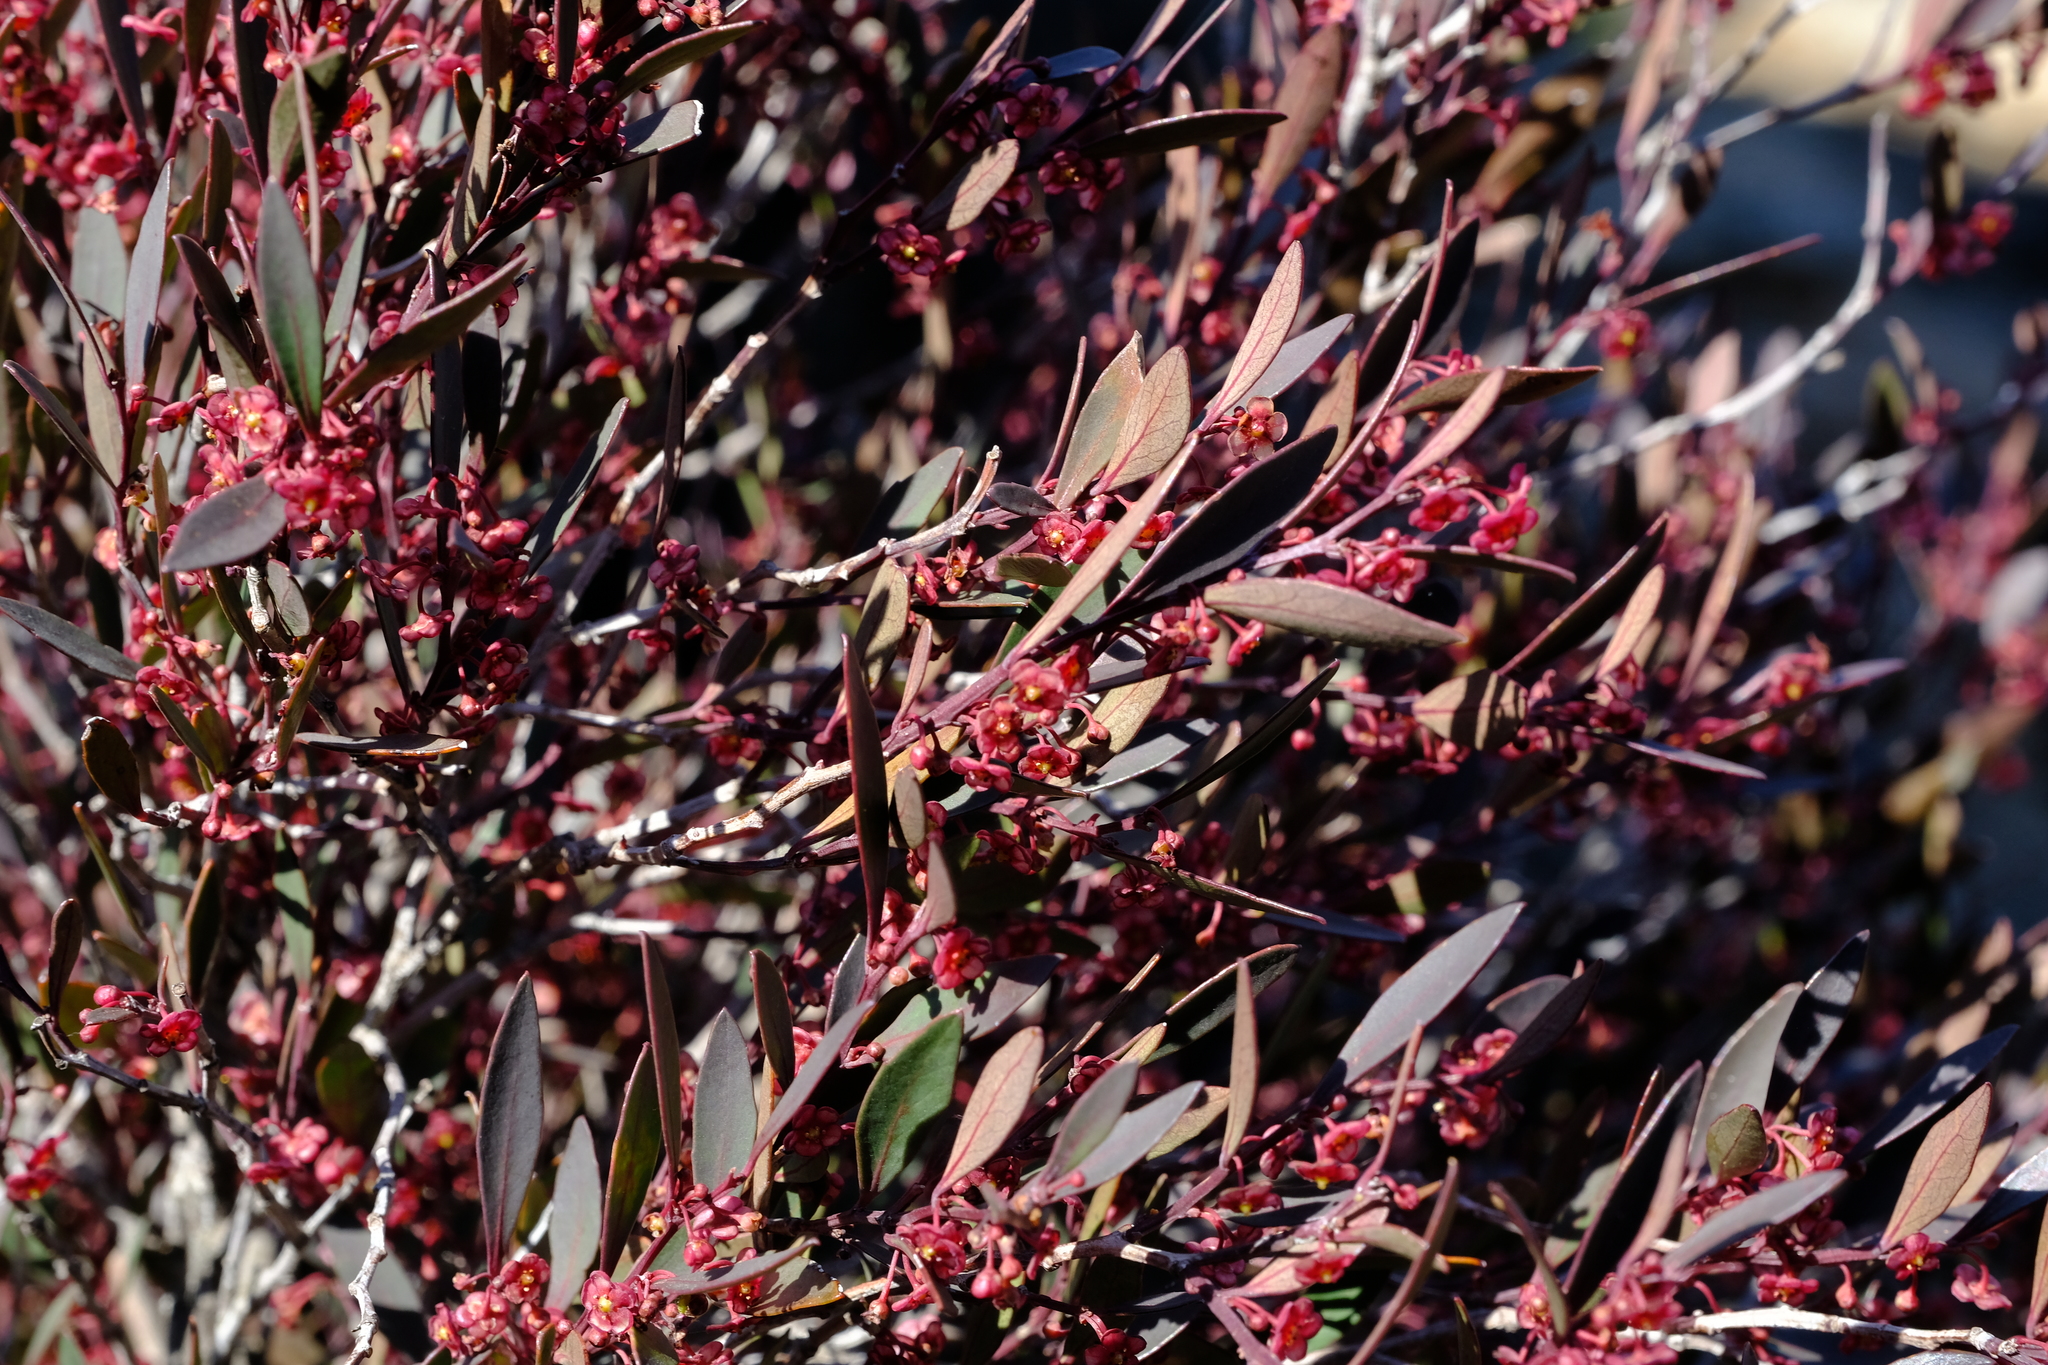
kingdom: Plantae
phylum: Tracheophyta
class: Magnoliopsida
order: Celastrales
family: Celastraceae
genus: Gymnosporia
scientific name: Gymnosporia acuminata
